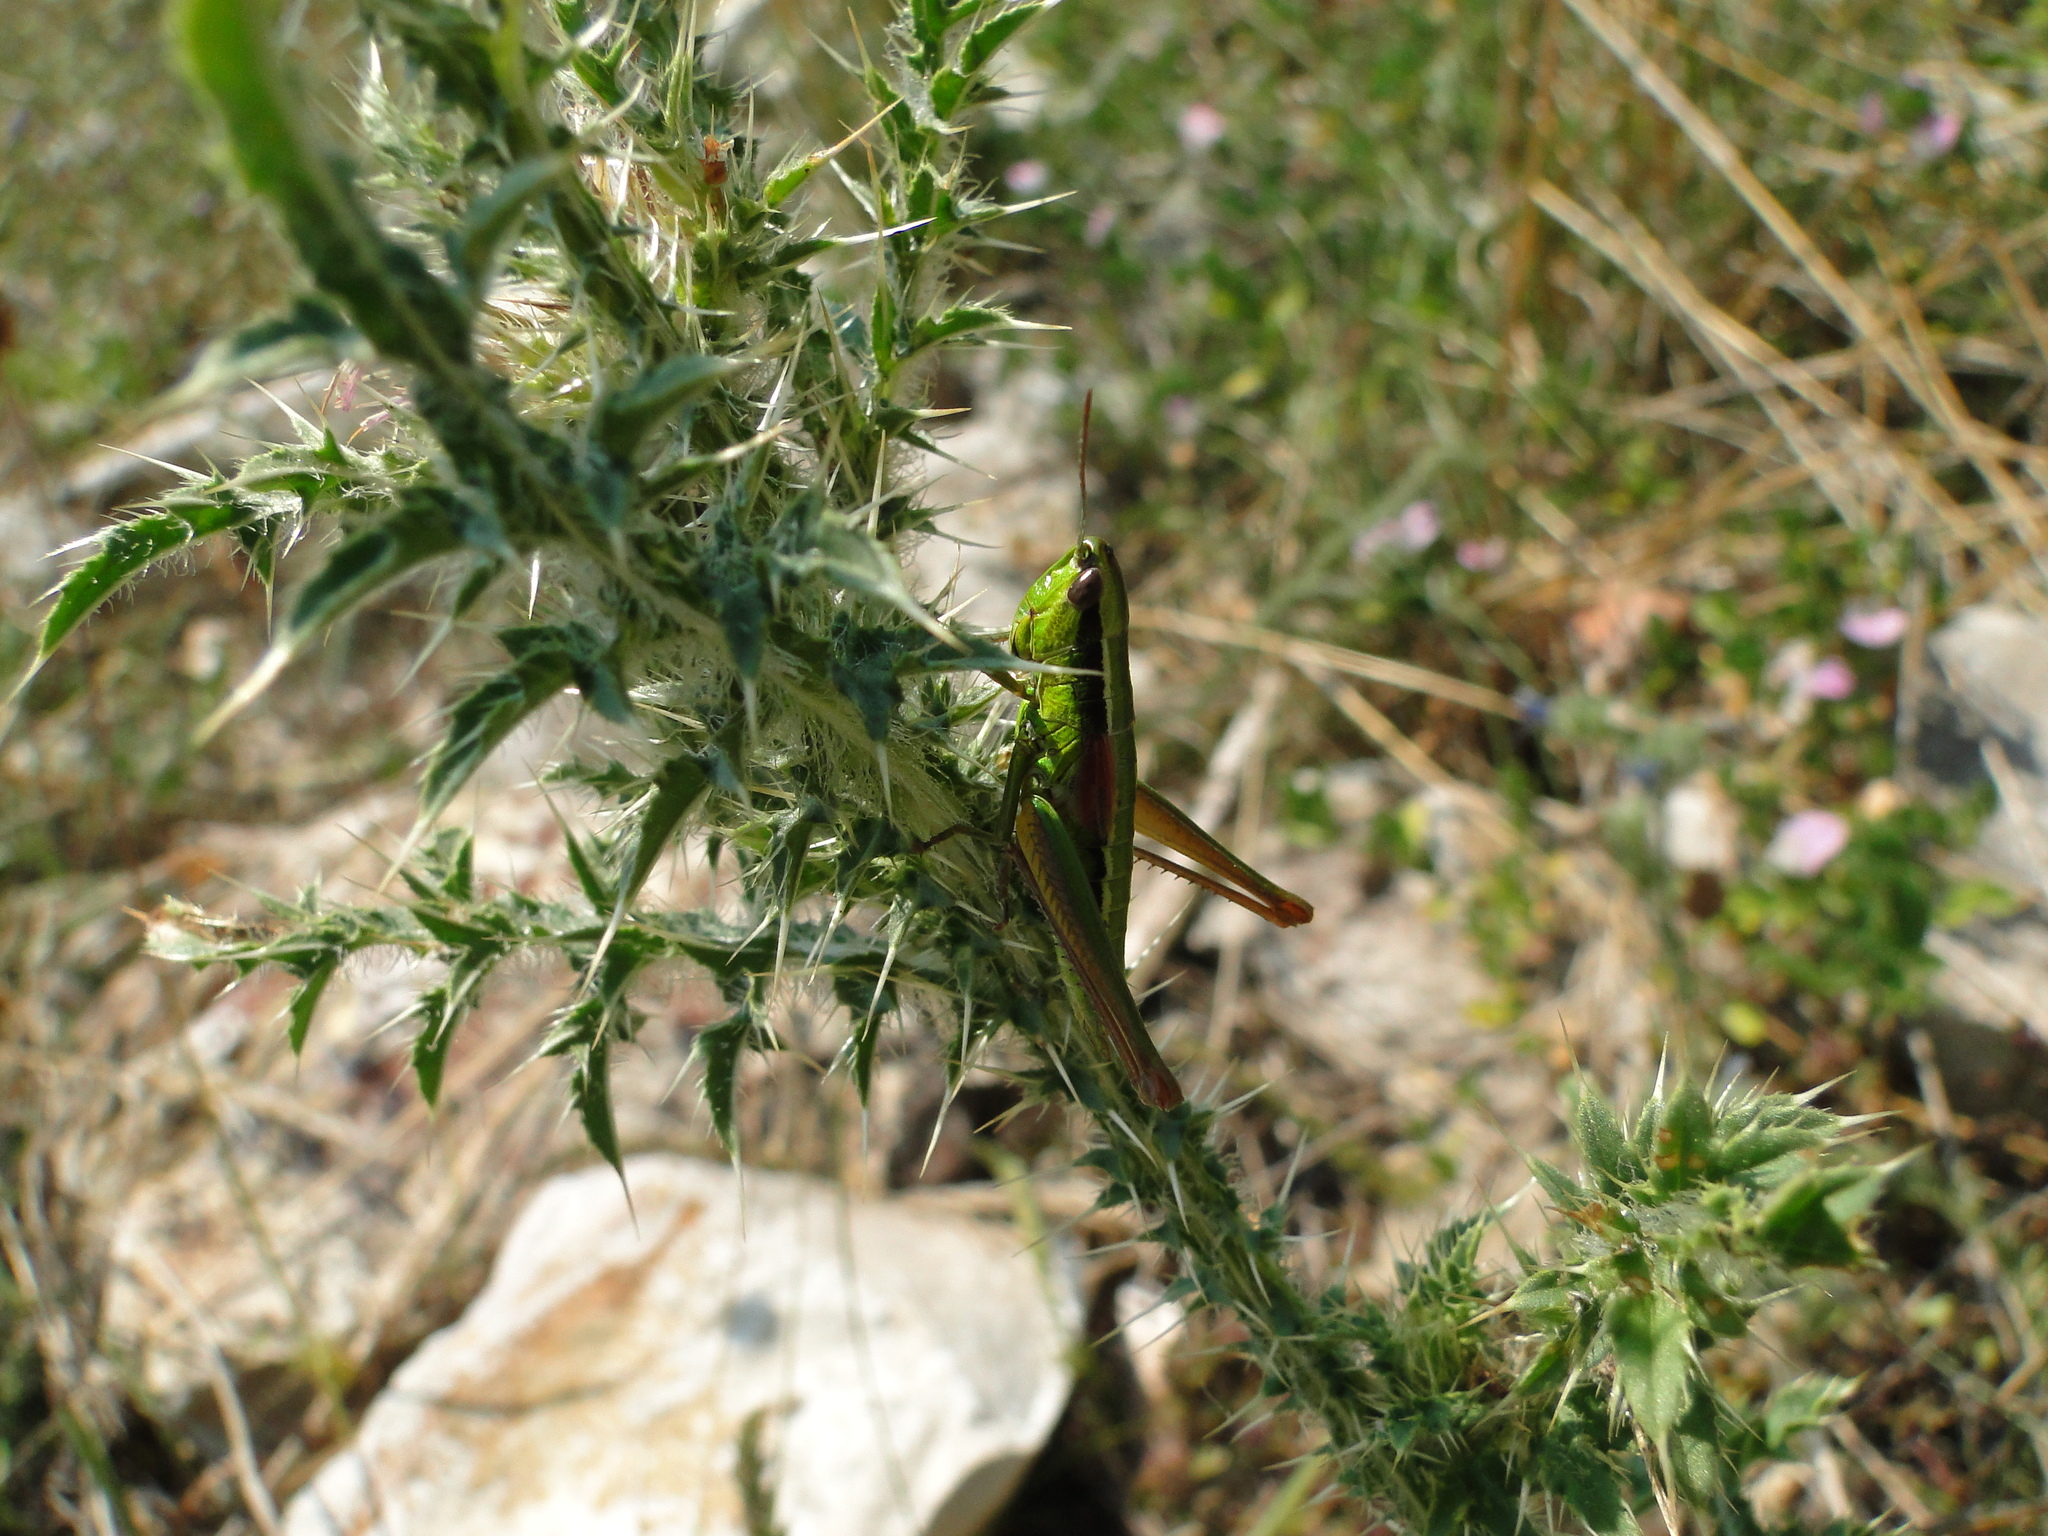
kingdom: Animalia
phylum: Arthropoda
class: Insecta
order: Orthoptera
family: Acrididae
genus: Euthystira
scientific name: Euthystira brachyptera
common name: Small gold grasshopper
